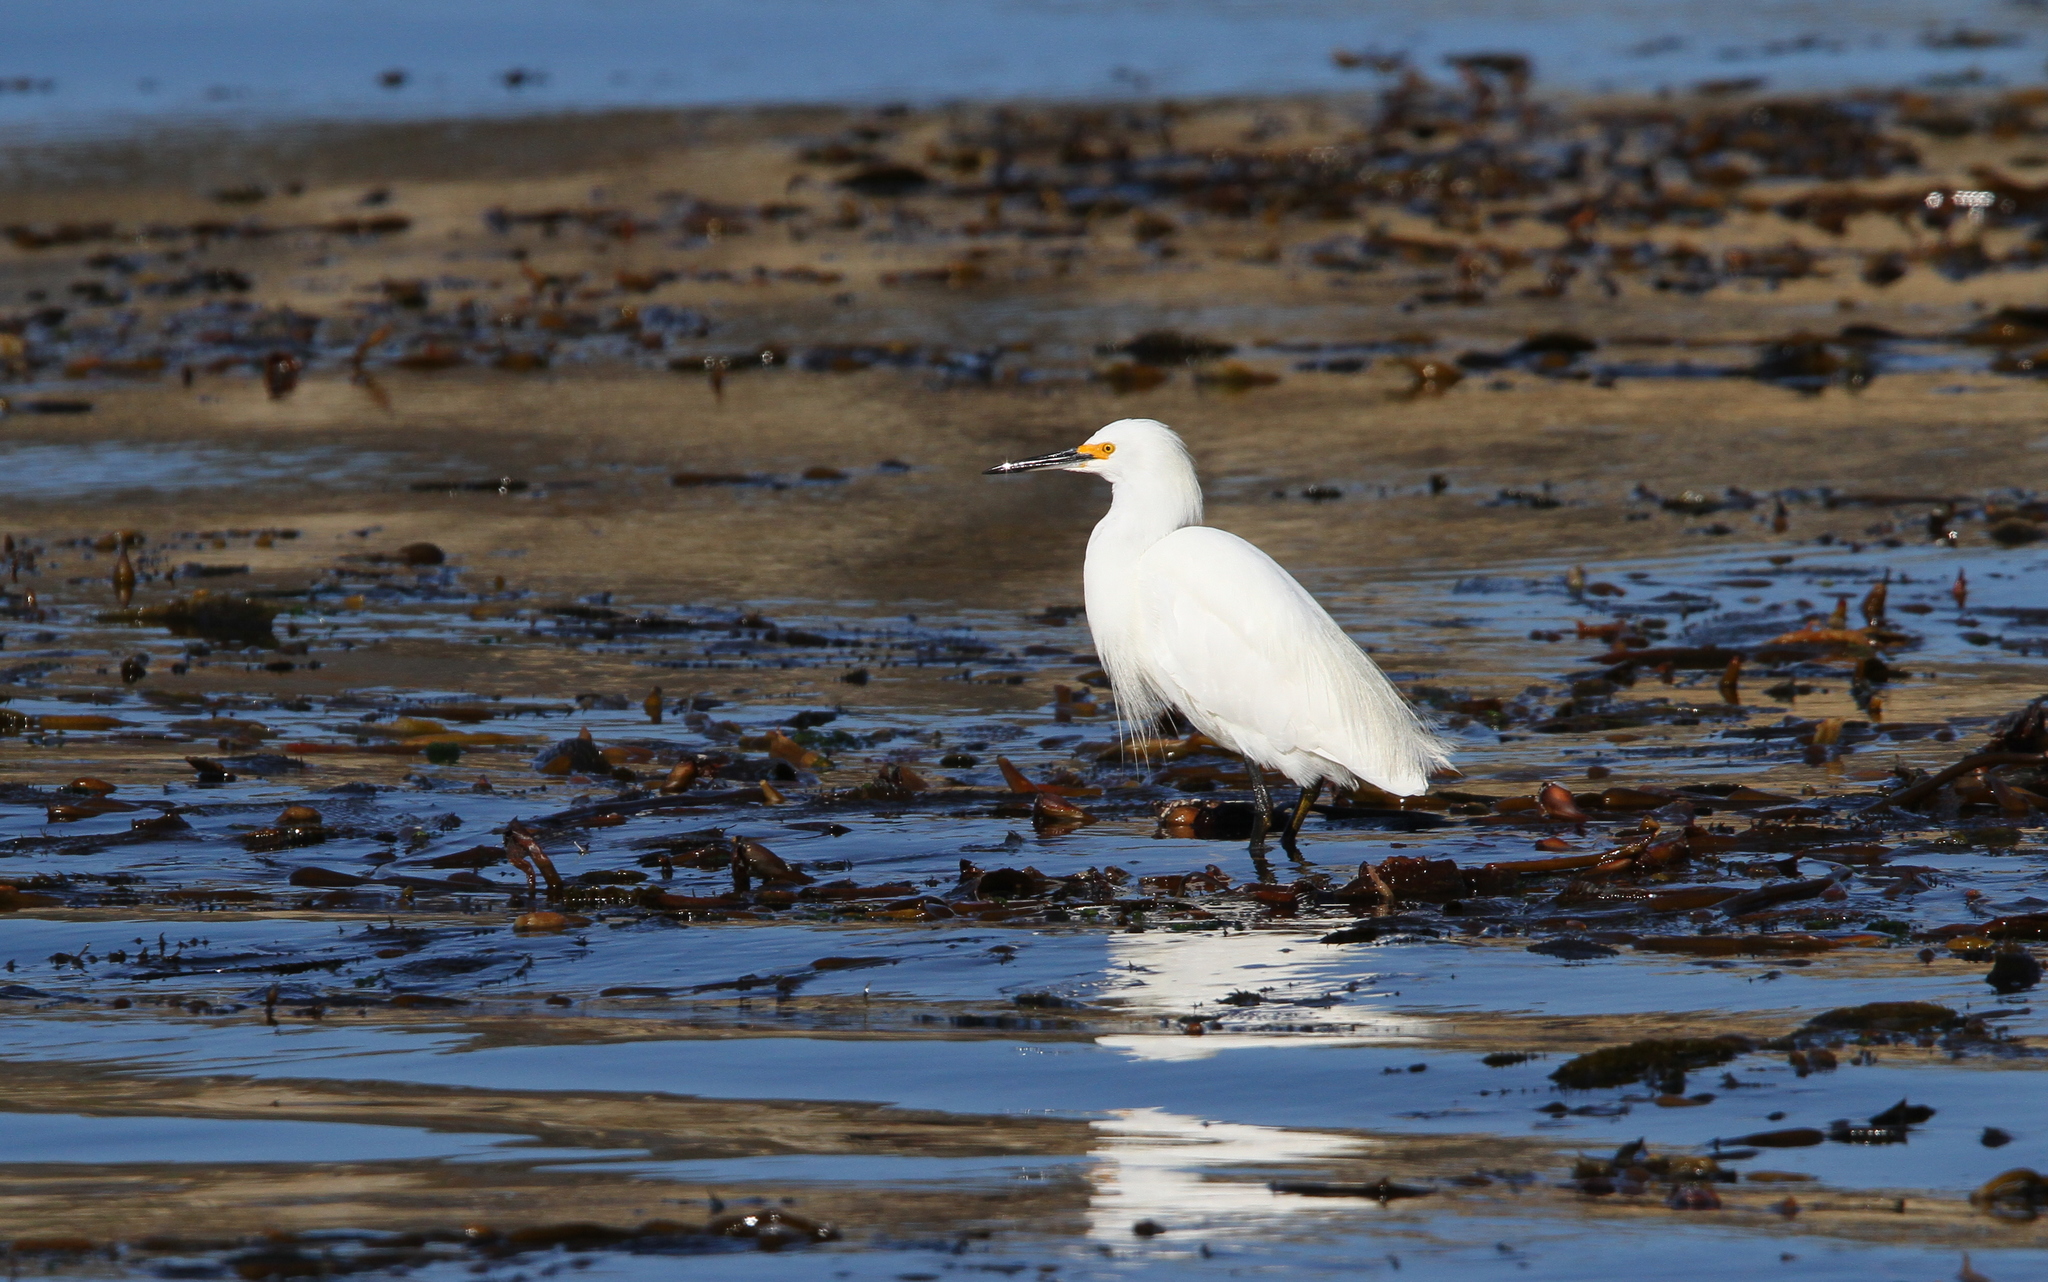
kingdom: Animalia
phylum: Chordata
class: Aves
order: Pelecaniformes
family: Ardeidae
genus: Egretta
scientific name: Egretta thula
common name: Snowy egret
